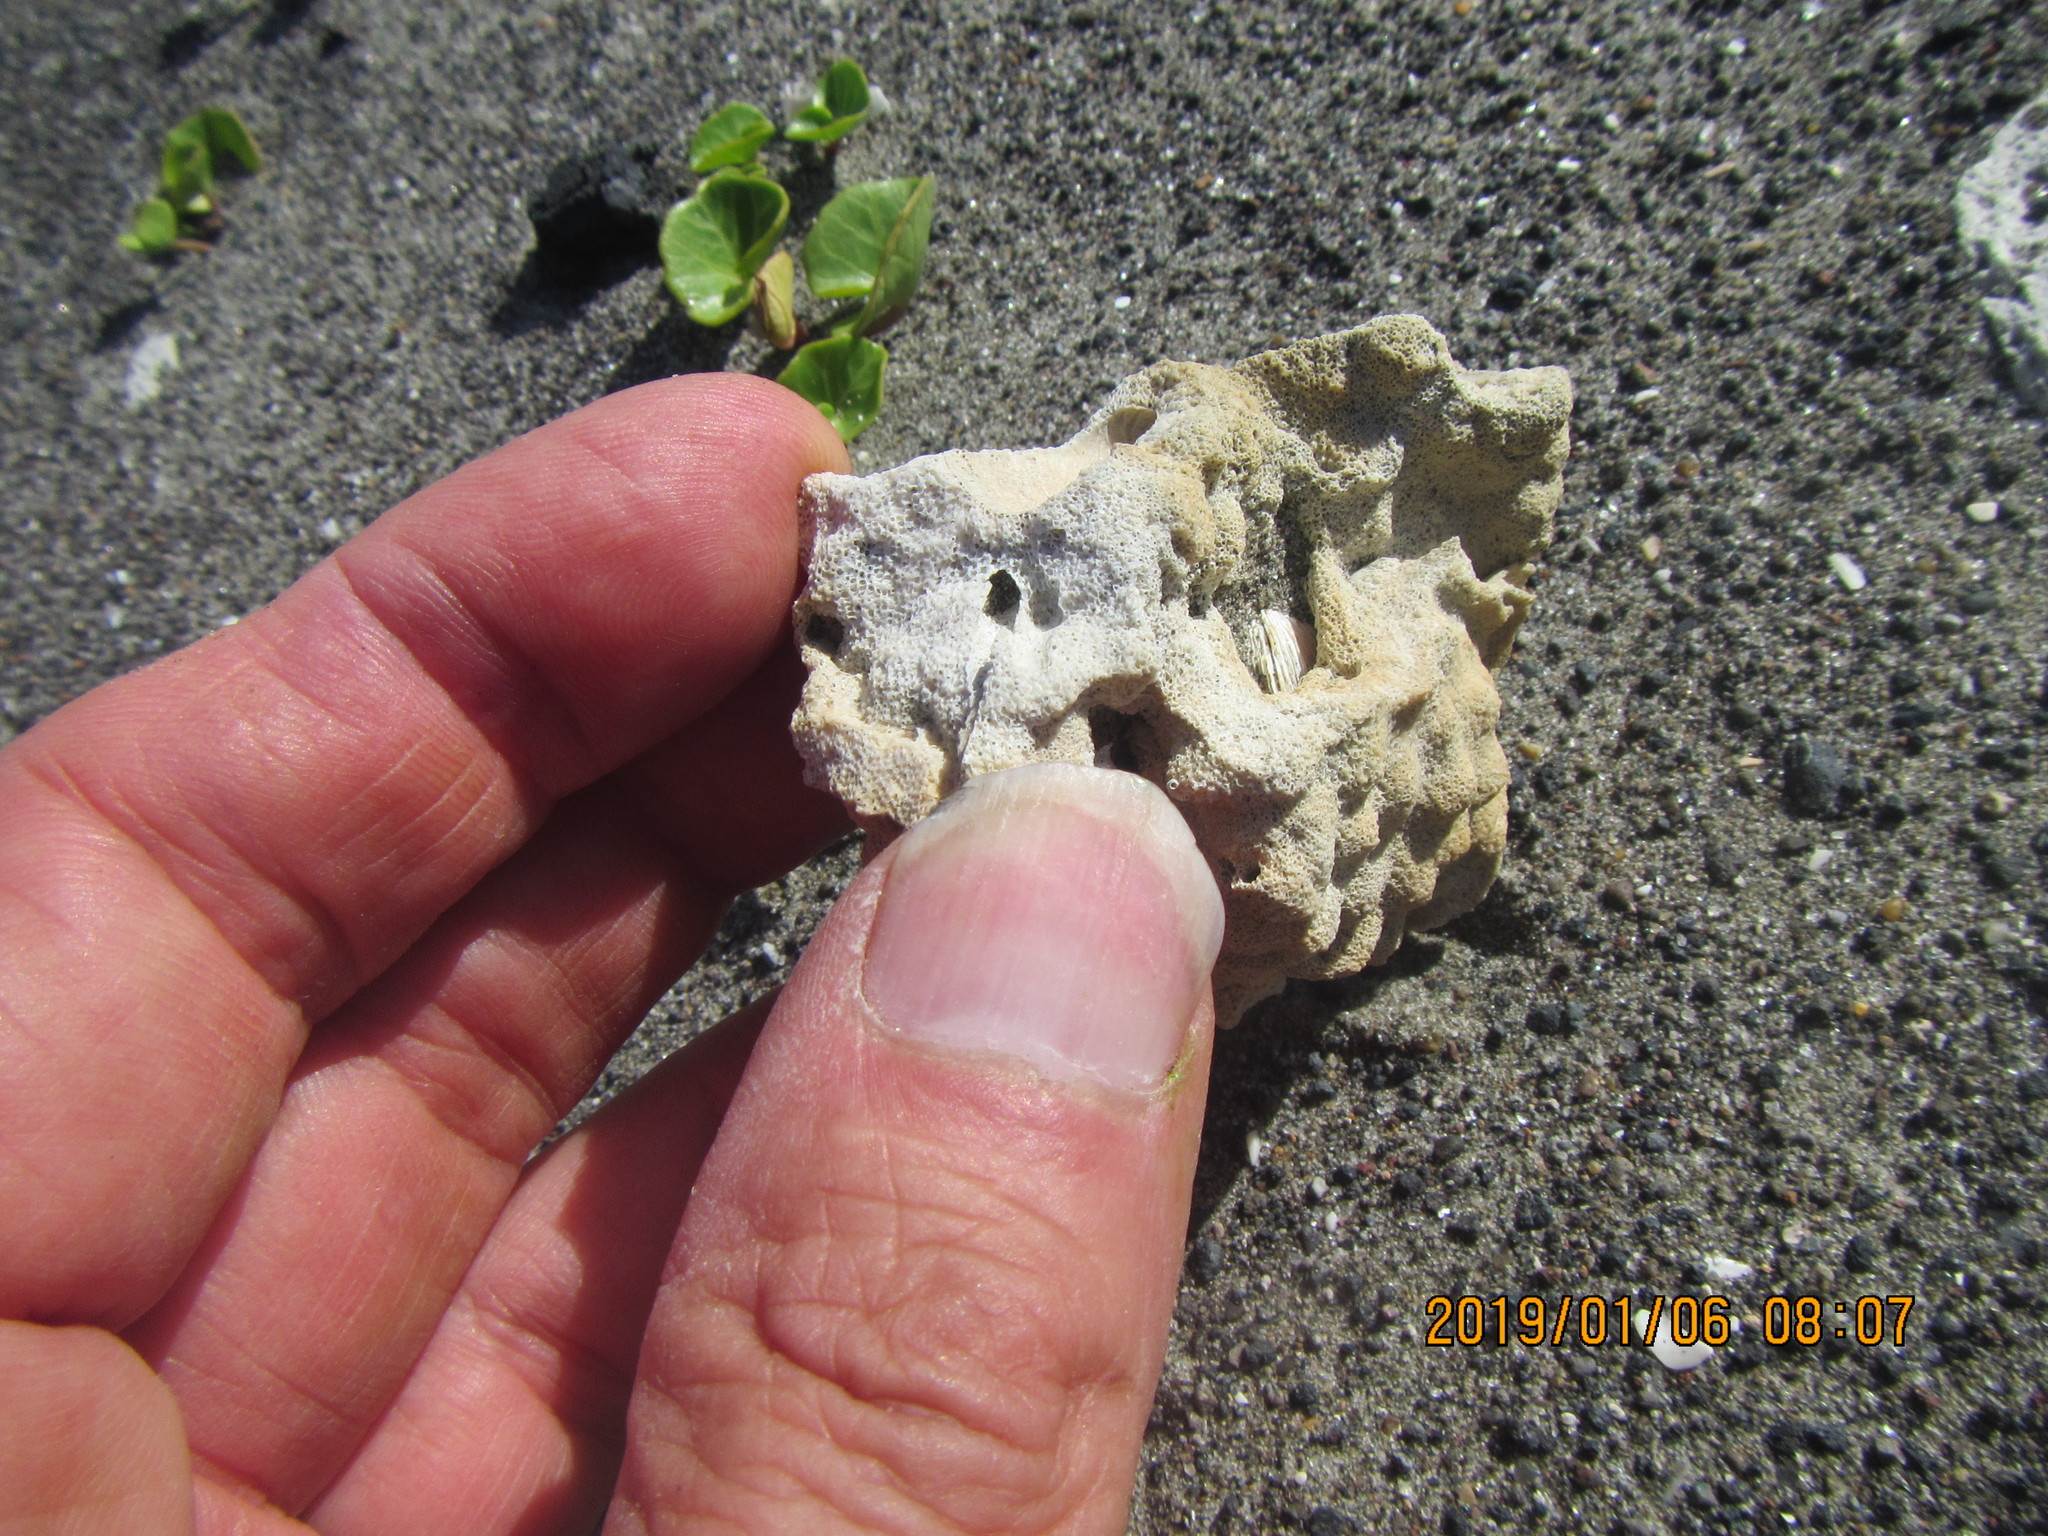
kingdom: Animalia
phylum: Bryozoa
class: Gymnolaemata
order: Cheilostomatida
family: Celleporidae
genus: Celleporaria
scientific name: Celleporaria agglutinans
